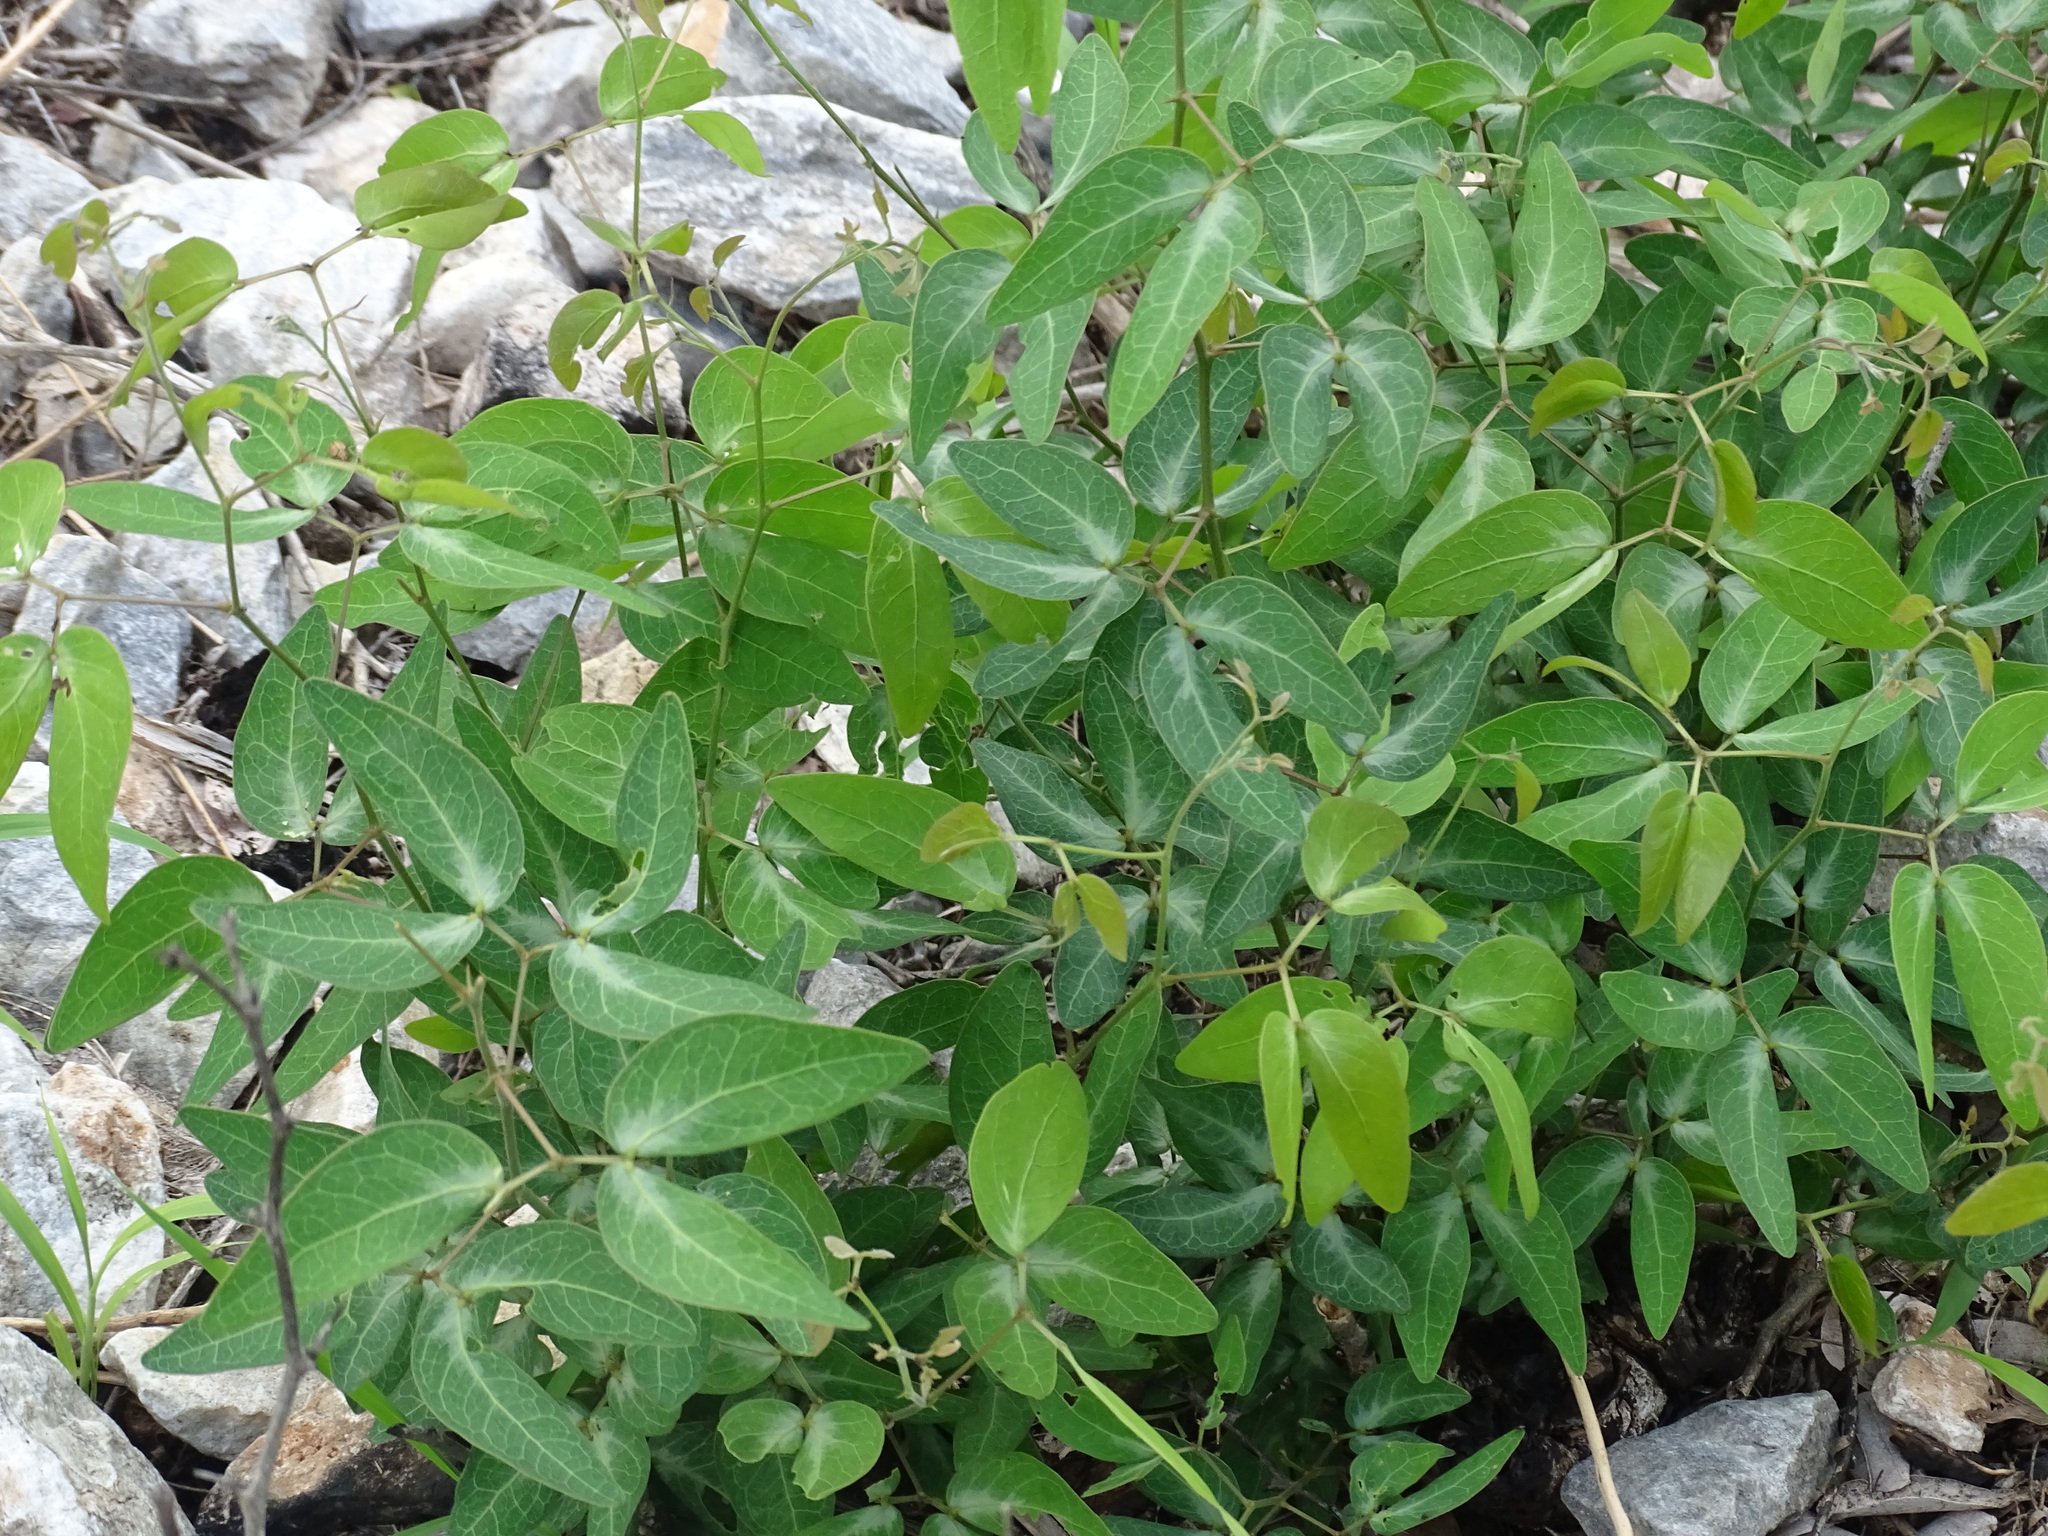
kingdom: Plantae
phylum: Tracheophyta
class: Magnoliopsida
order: Fabales
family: Fabaceae
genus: Pithecellobium
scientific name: Pithecellobium dulce
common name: Monkeypod
